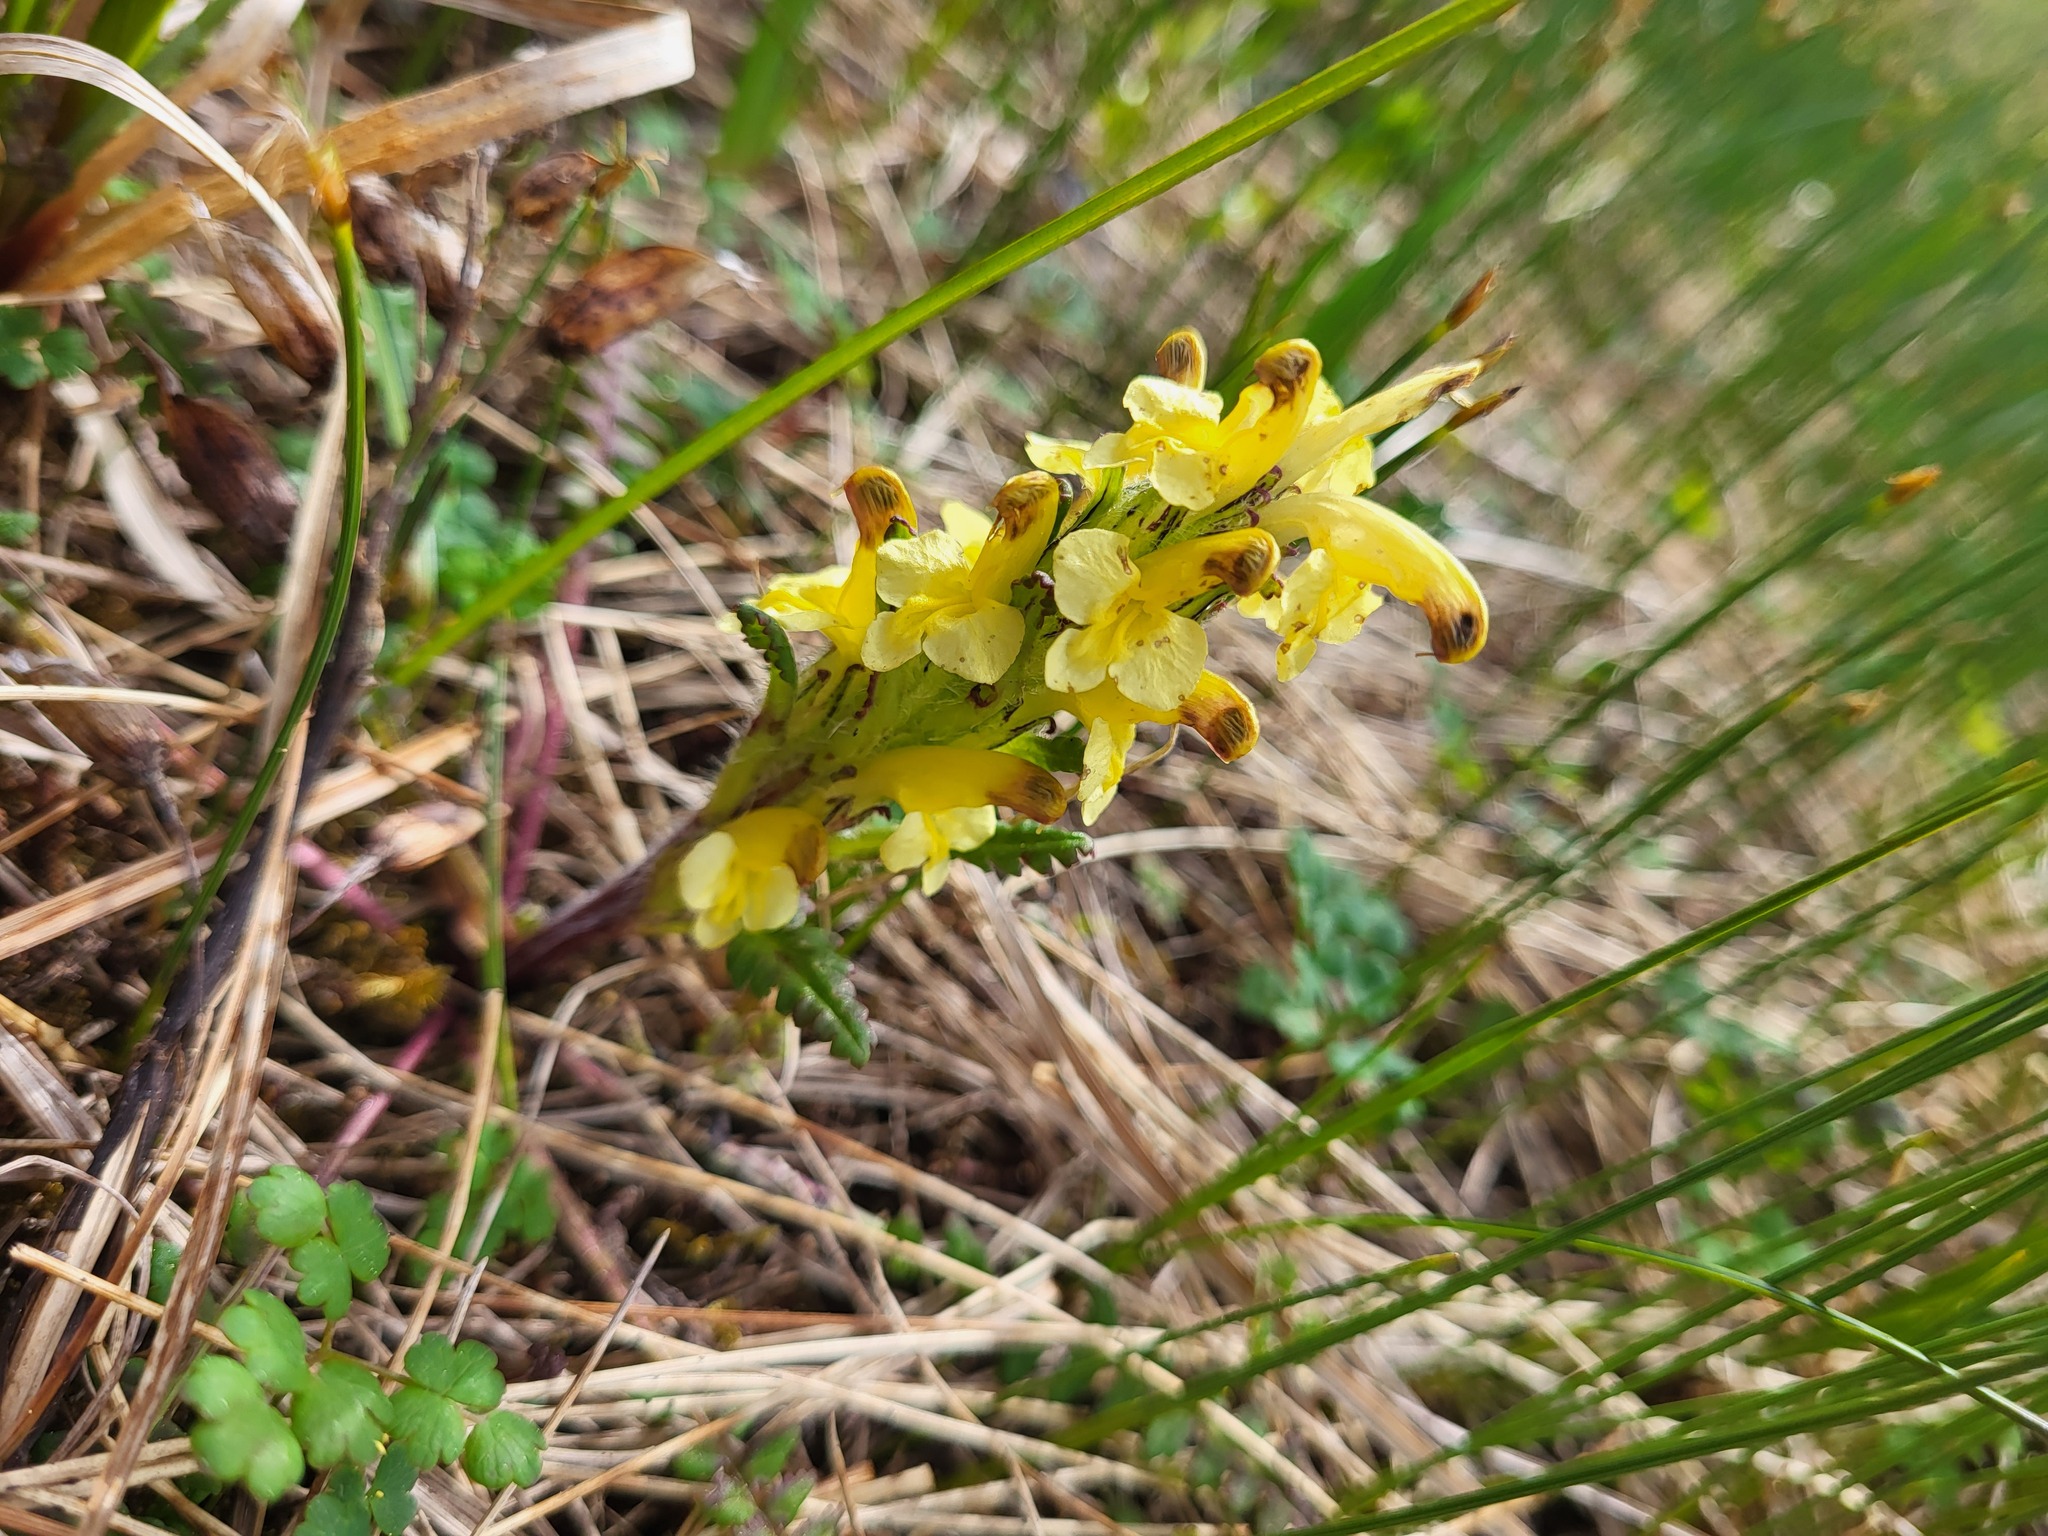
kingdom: Plantae
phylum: Tracheophyta
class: Magnoliopsida
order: Lamiales
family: Orobanchaceae
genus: Pedicularis
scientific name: Pedicularis oederi
